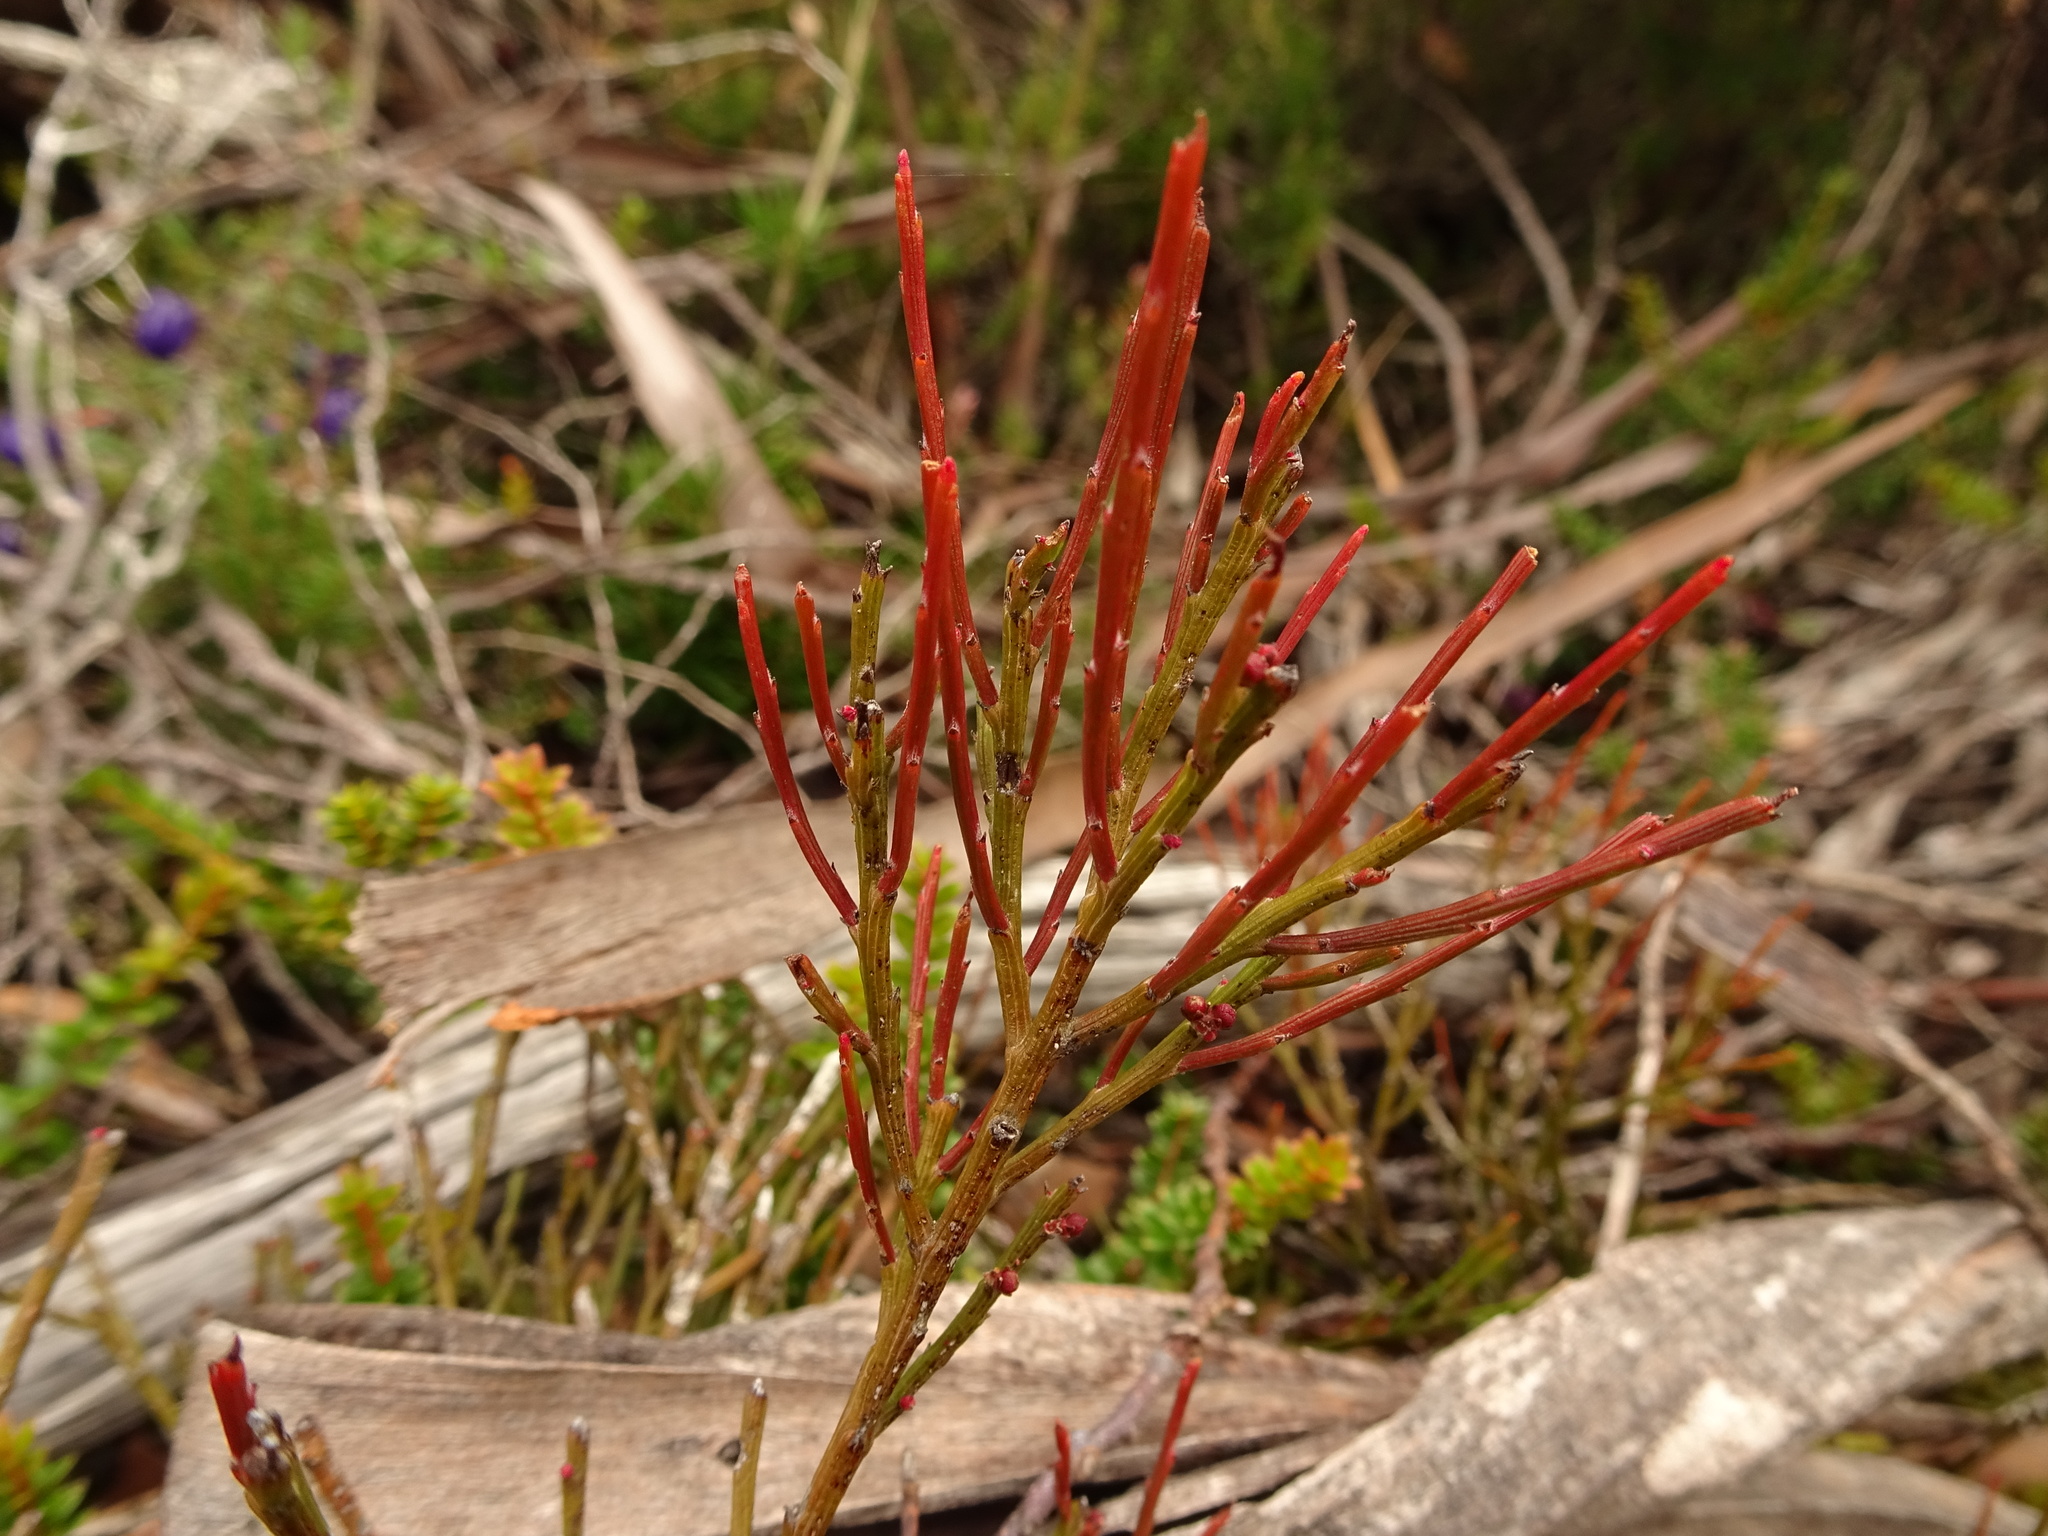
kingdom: Plantae
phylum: Tracheophyta
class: Magnoliopsida
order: Santalales
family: Santalaceae
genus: Exocarpos
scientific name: Exocarpos humifusus
